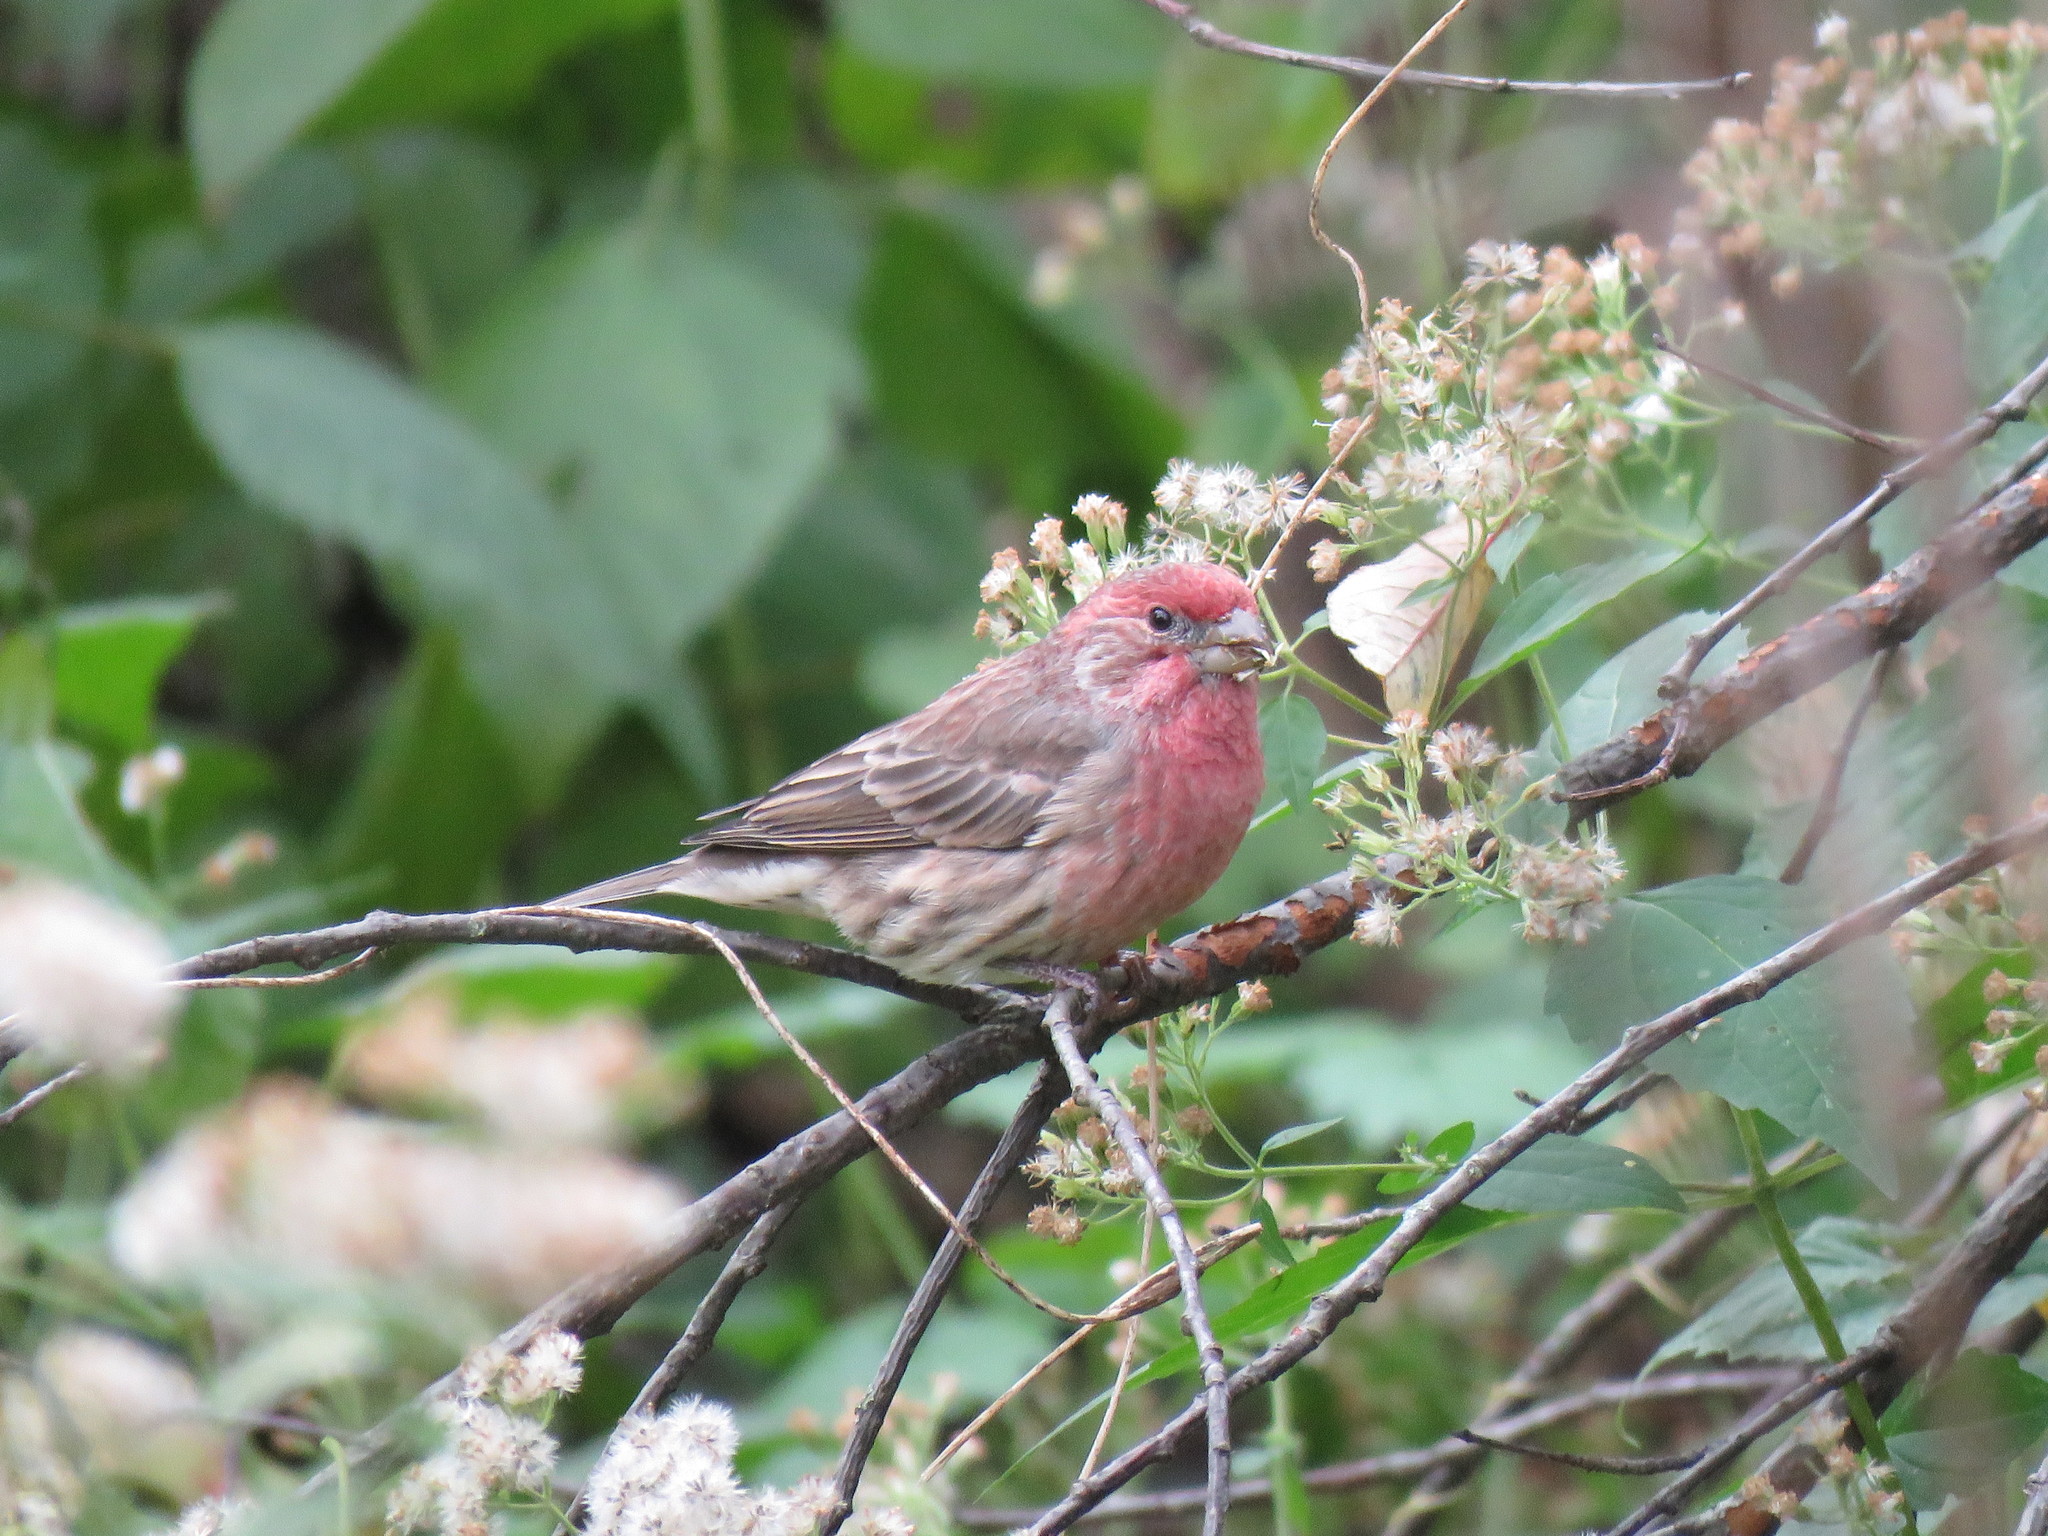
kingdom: Animalia
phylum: Chordata
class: Aves
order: Passeriformes
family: Fringillidae
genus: Haemorhous
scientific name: Haemorhous mexicanus
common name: House finch
